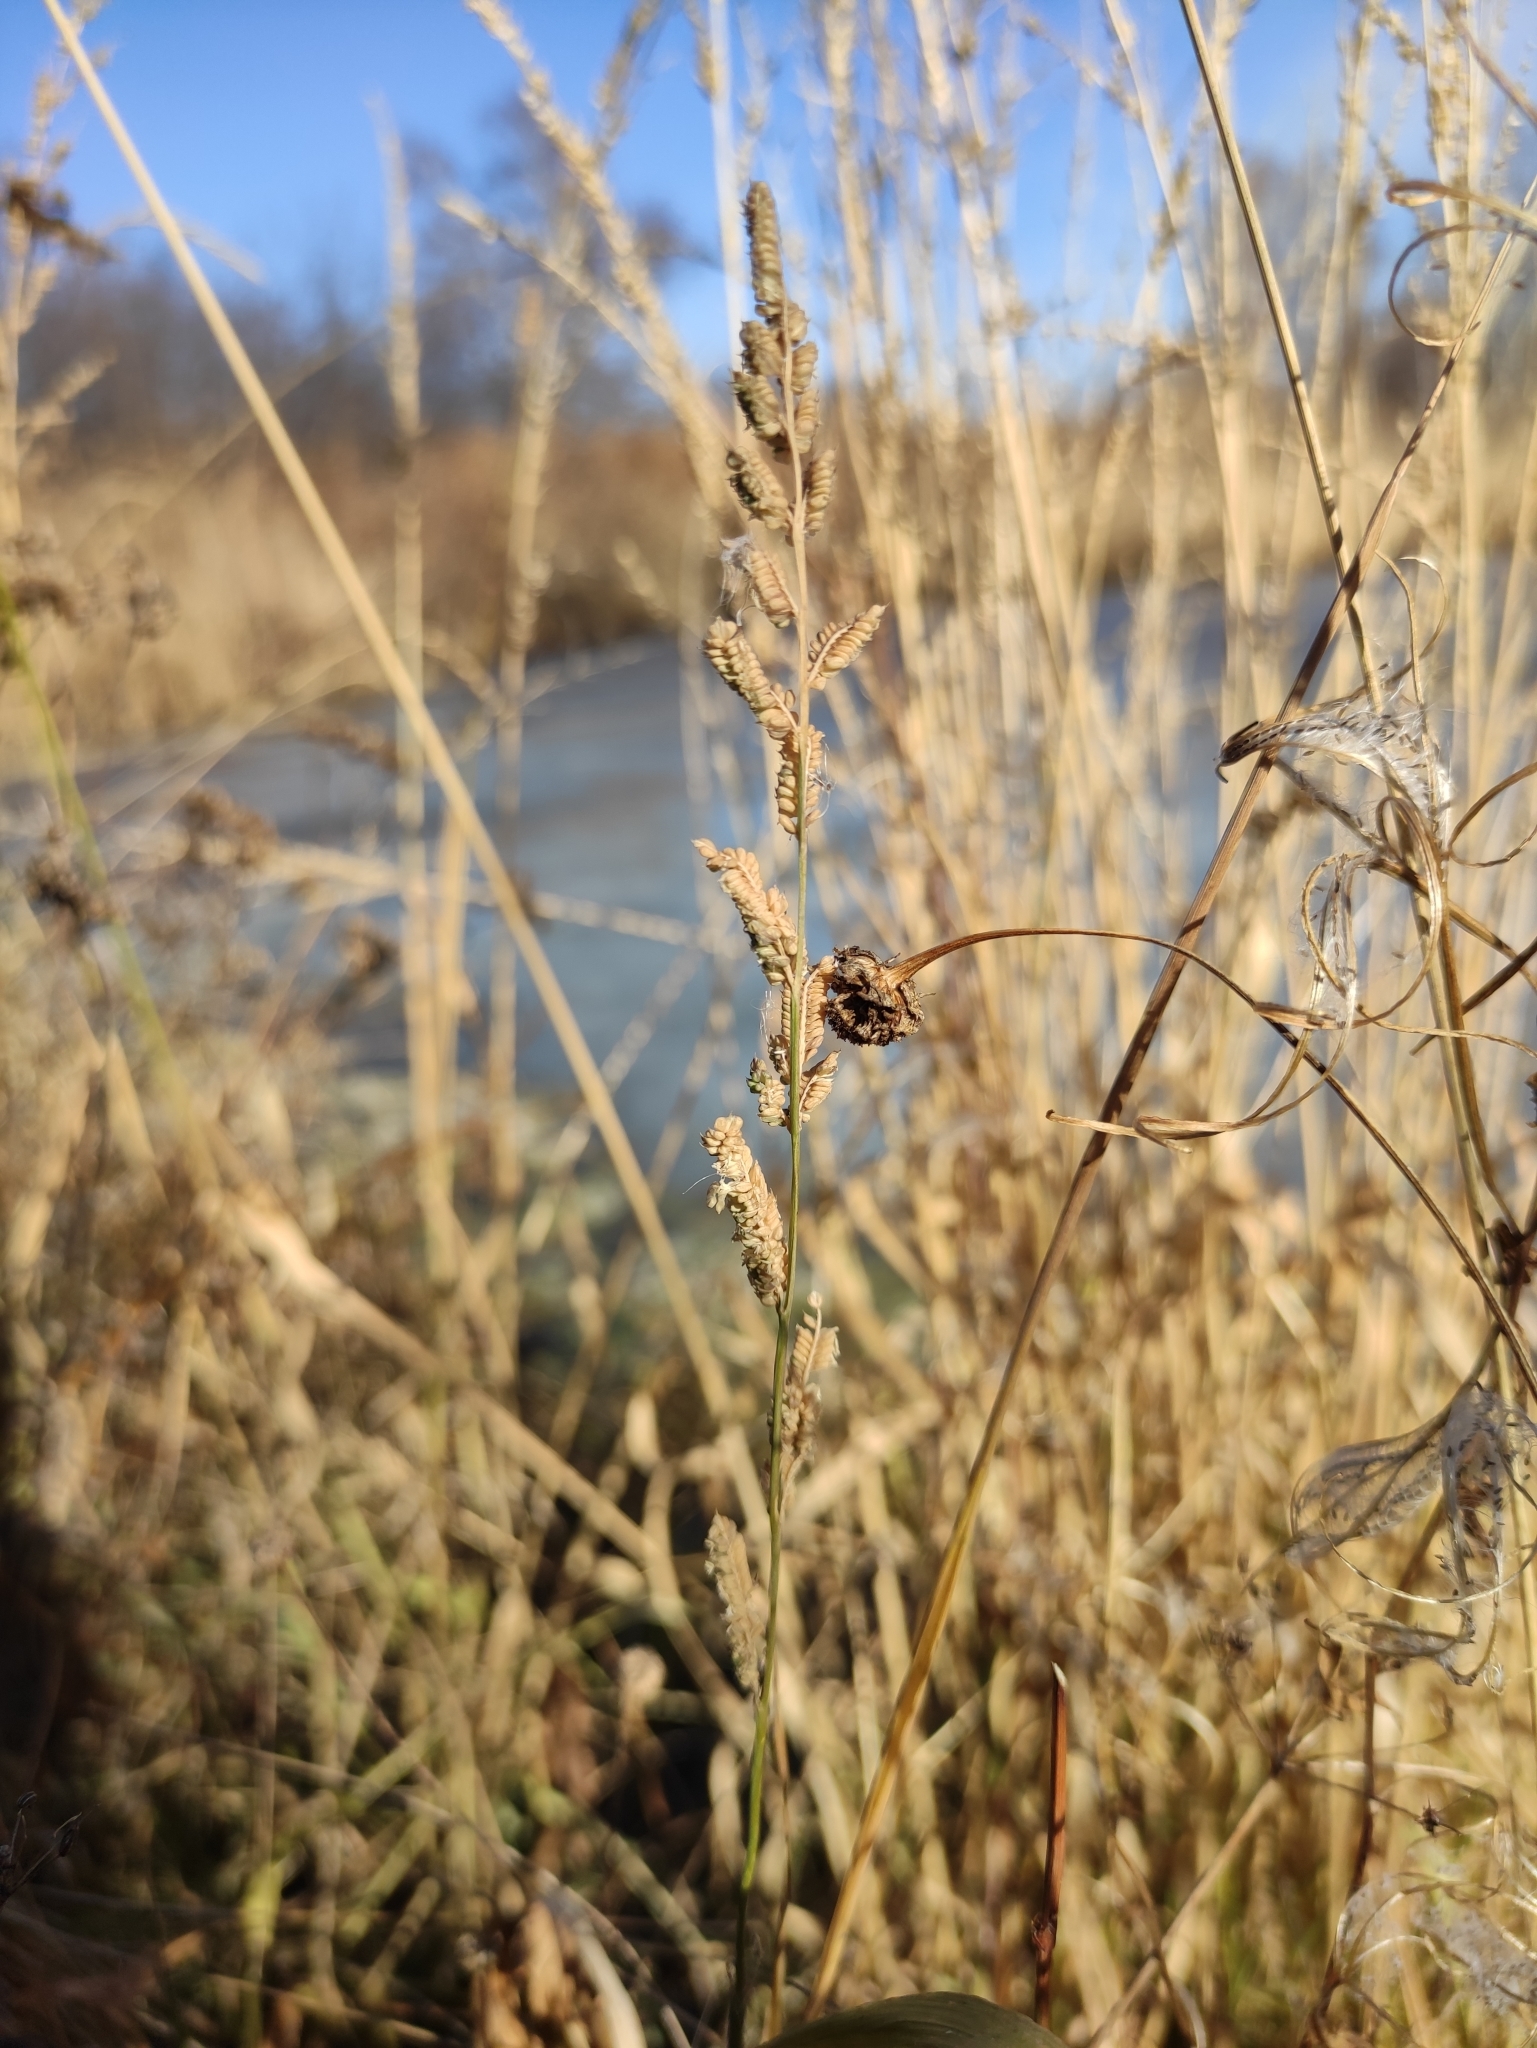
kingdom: Plantae
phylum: Tracheophyta
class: Liliopsida
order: Poales
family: Poaceae
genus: Beckmannia
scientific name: Beckmannia syzigachne
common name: American slough-grass
